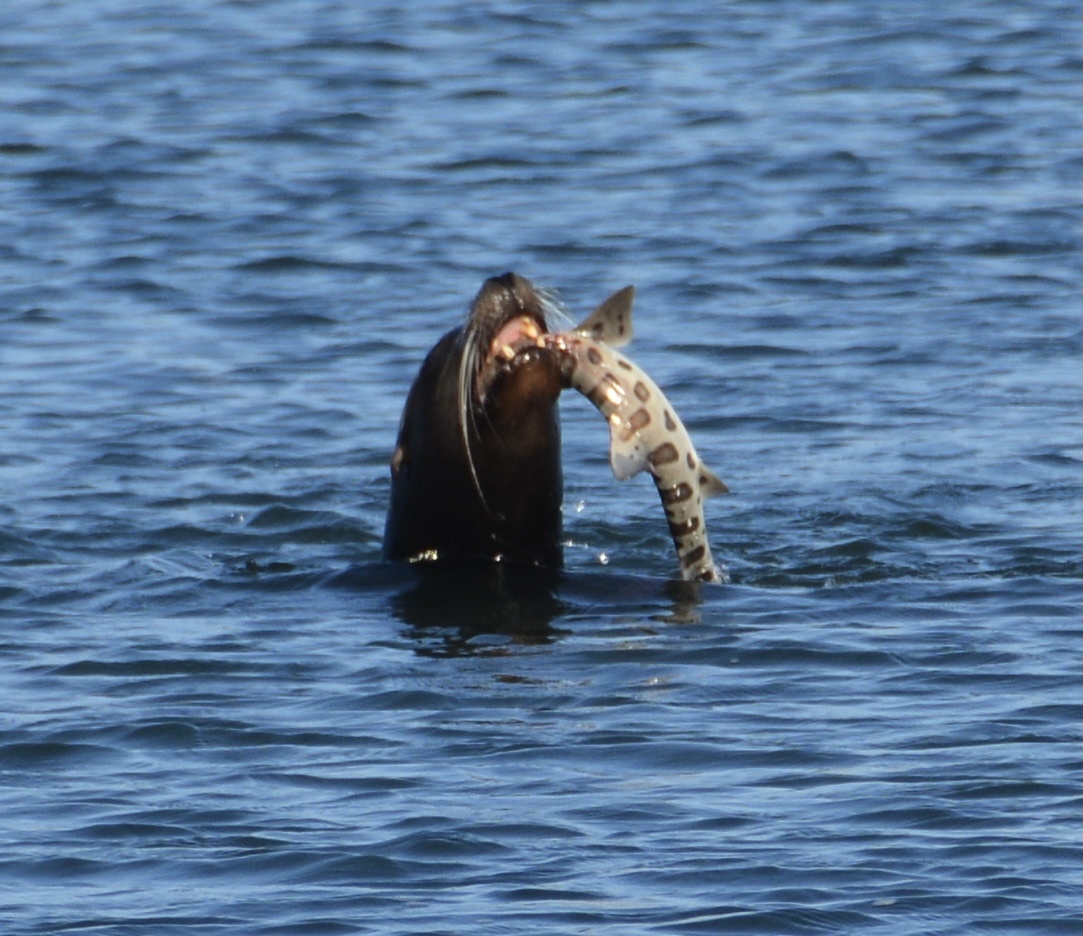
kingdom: Animalia
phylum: Chordata
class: Mammalia
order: Carnivora
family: Otariidae
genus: Zalophus
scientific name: Zalophus californianus
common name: California sea lion
